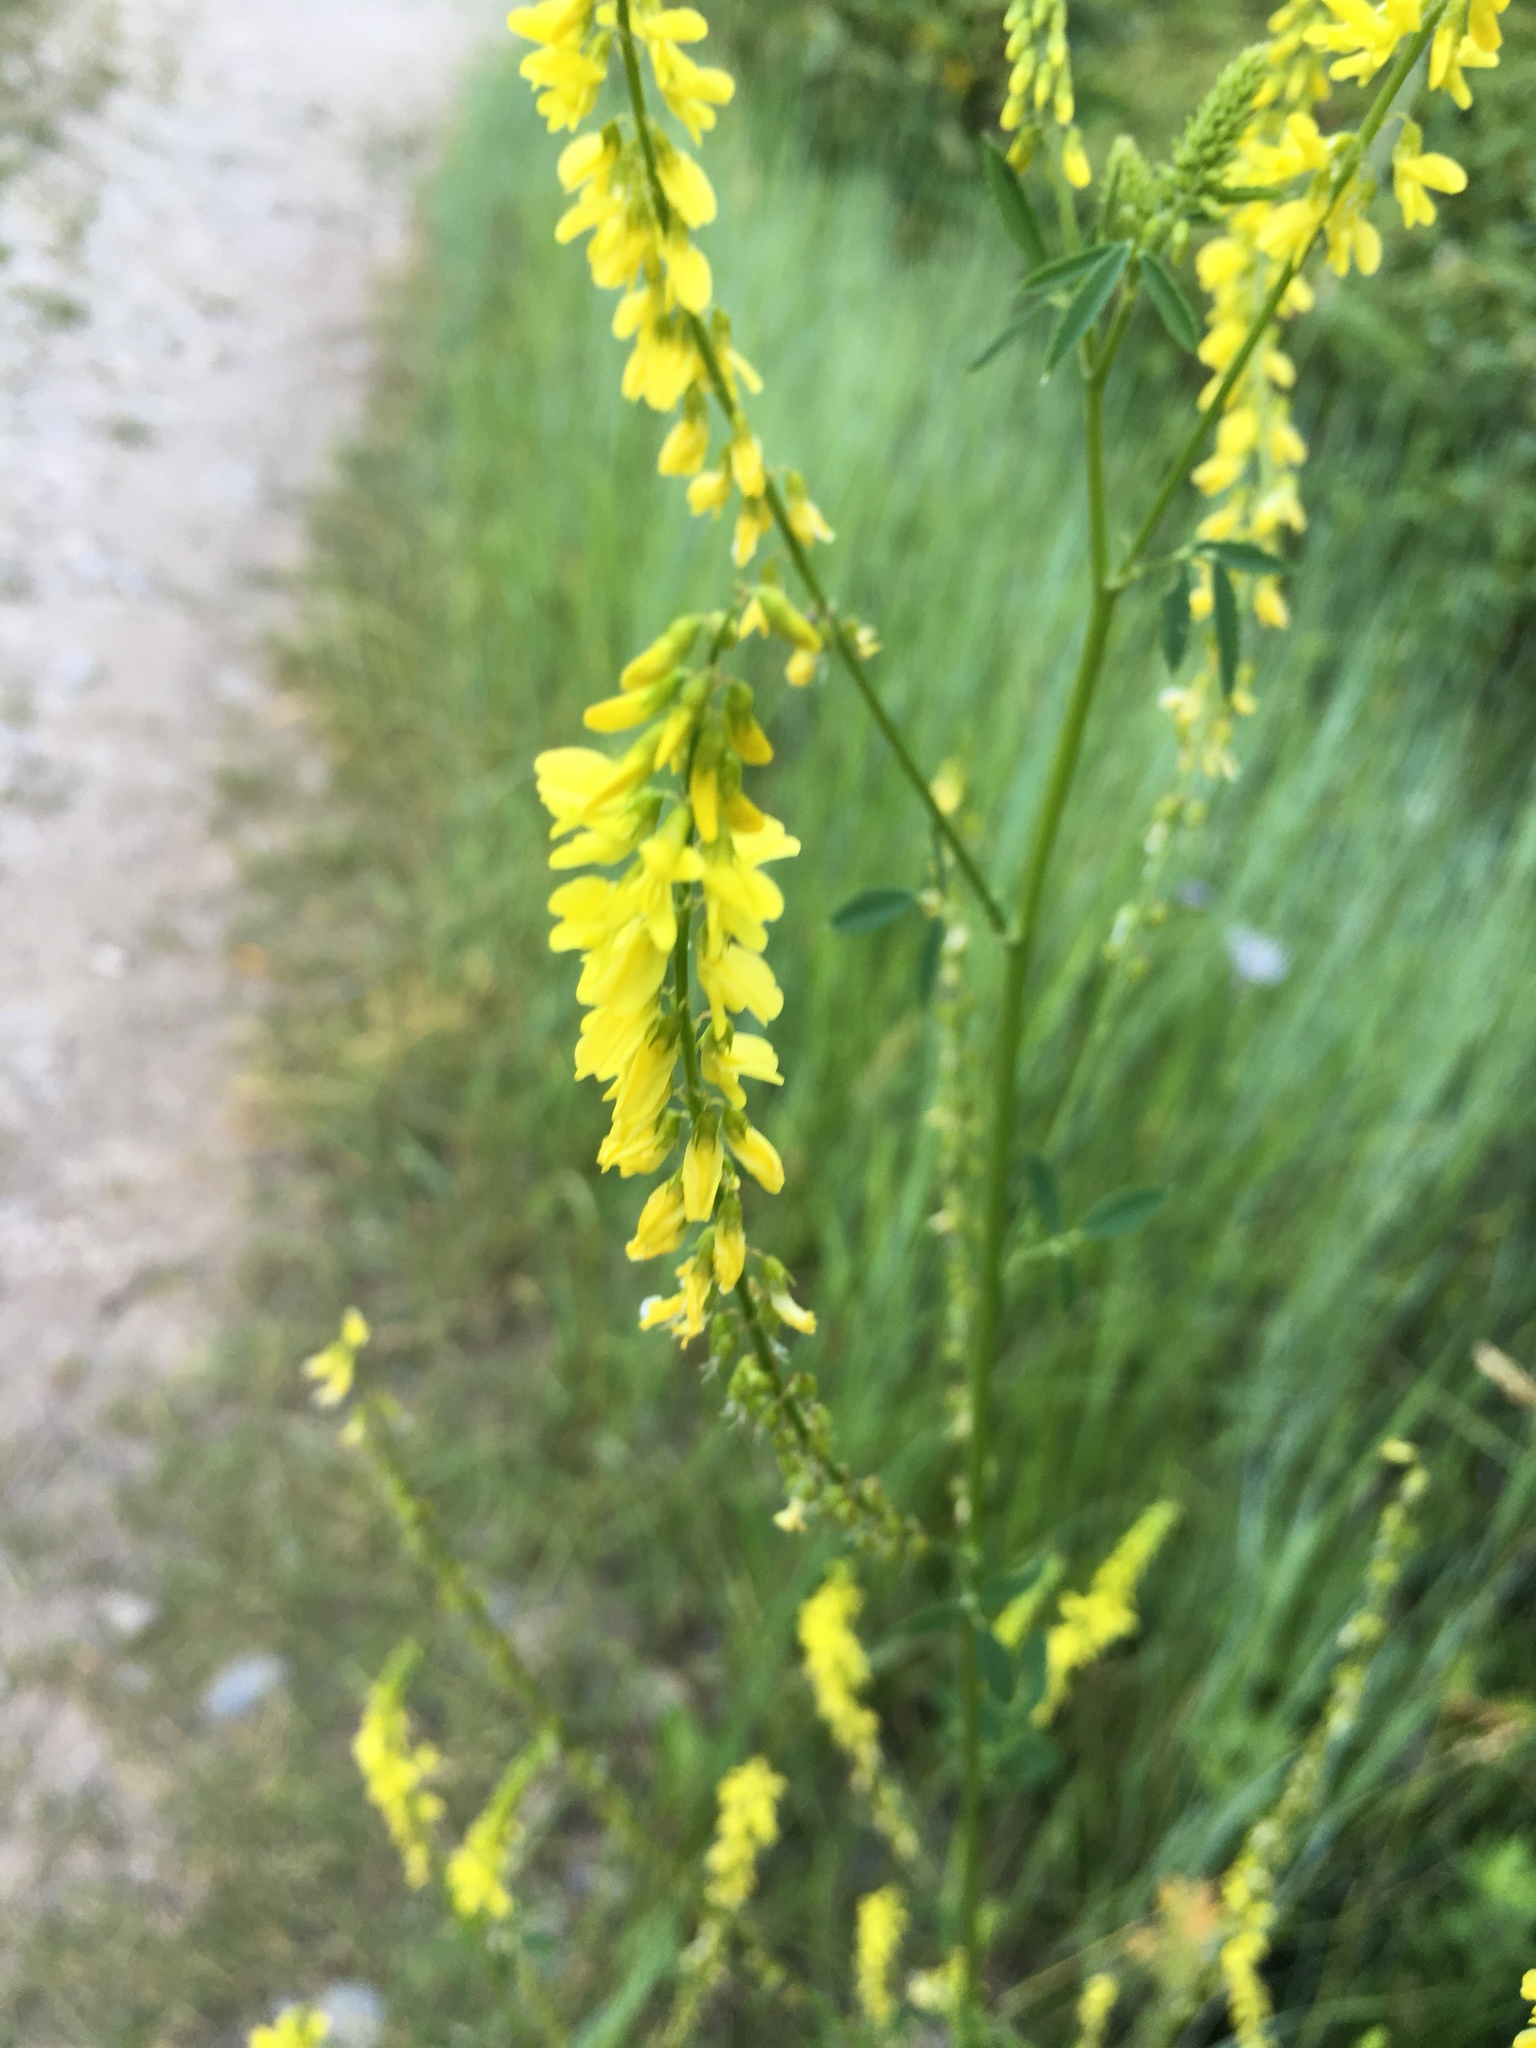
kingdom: Plantae
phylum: Tracheophyta
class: Magnoliopsida
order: Fabales
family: Fabaceae
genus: Melilotus
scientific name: Melilotus officinalis
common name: Sweetclover
